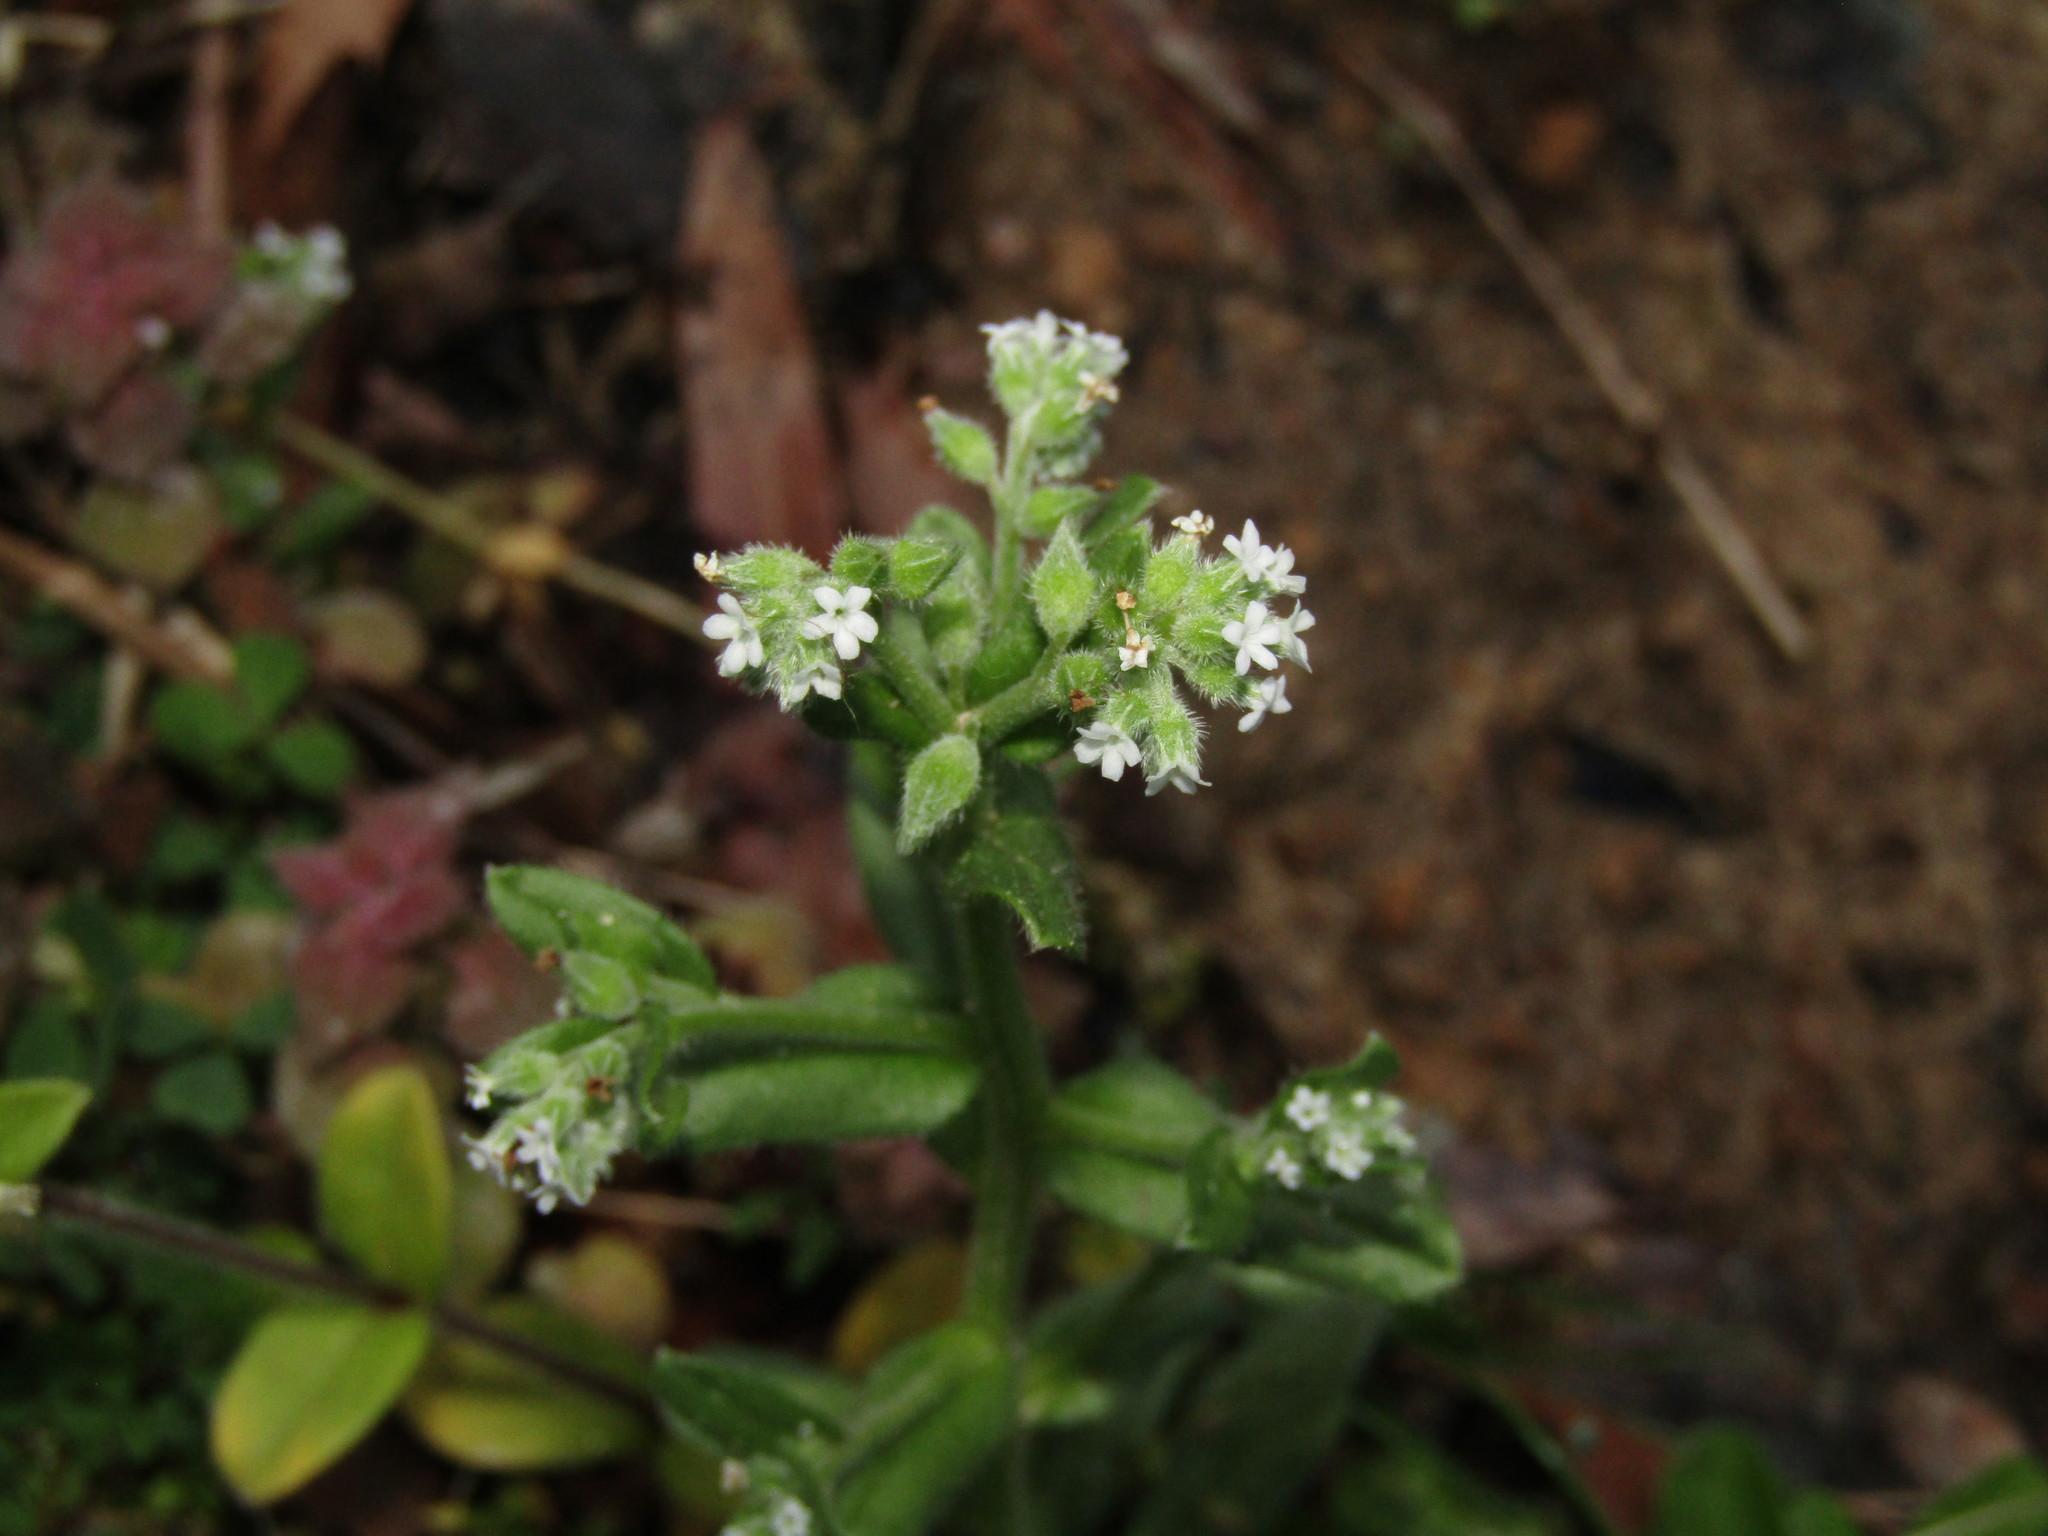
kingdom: Plantae
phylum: Tracheophyta
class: Magnoliopsida
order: Boraginales
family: Boraginaceae
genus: Myosotis
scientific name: Myosotis verna
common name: Early forget-me-not
